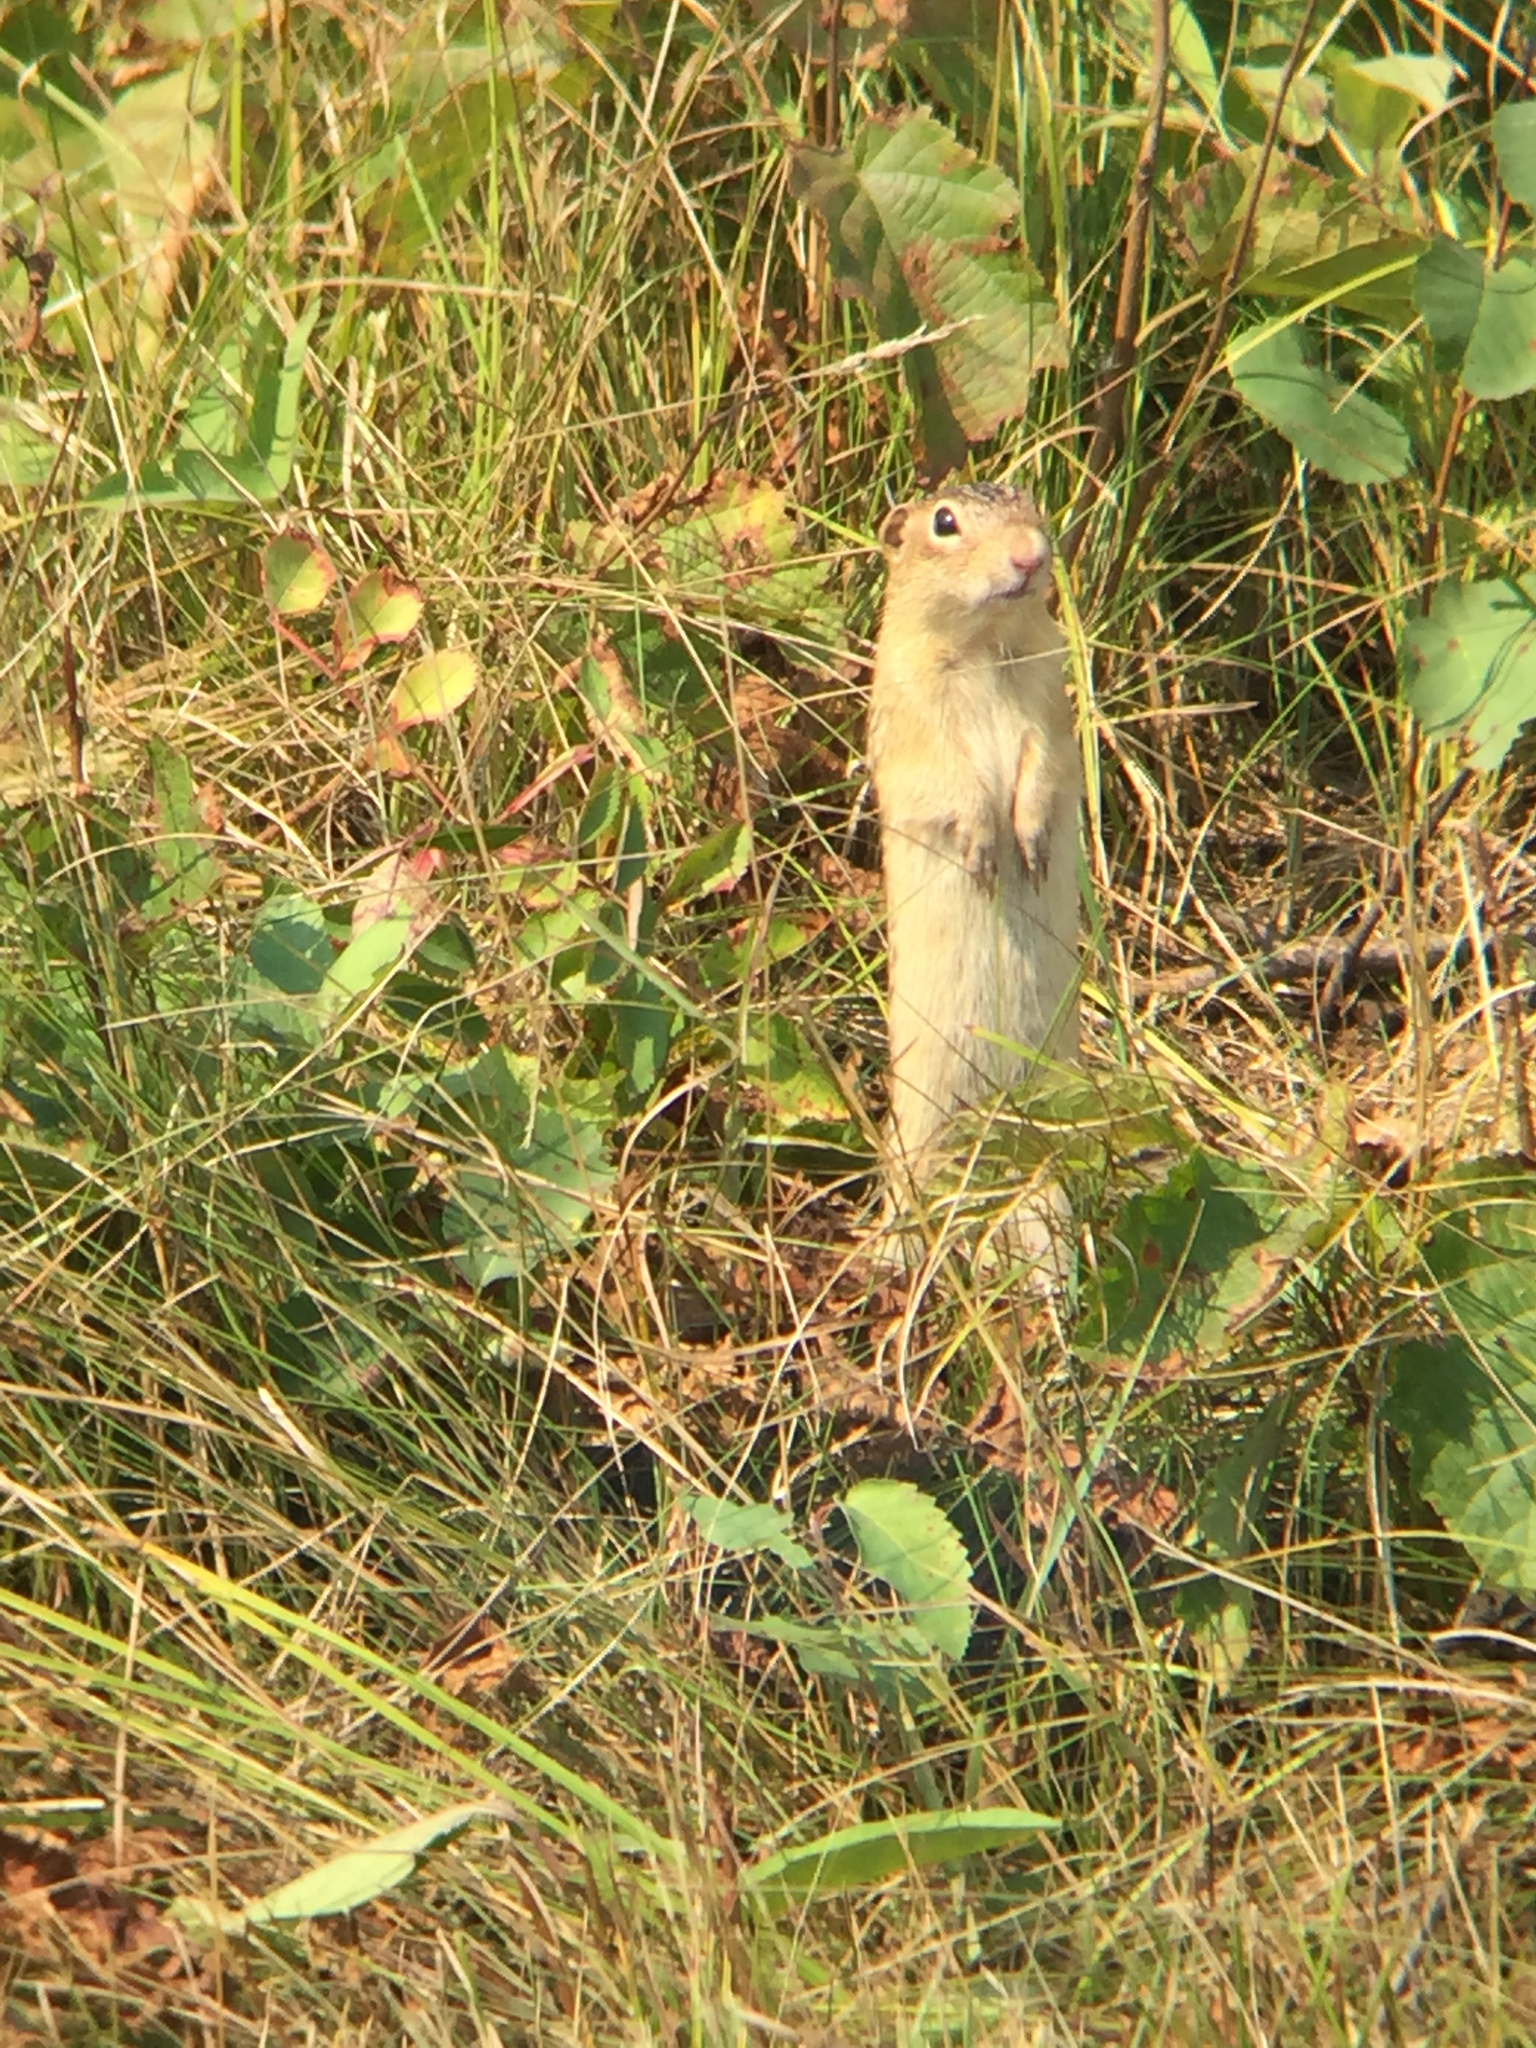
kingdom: Animalia
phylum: Chordata
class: Mammalia
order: Rodentia
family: Sciuridae
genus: Ictidomys
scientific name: Ictidomys tridecemlineatus
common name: Thirteen-lined ground squirrel
